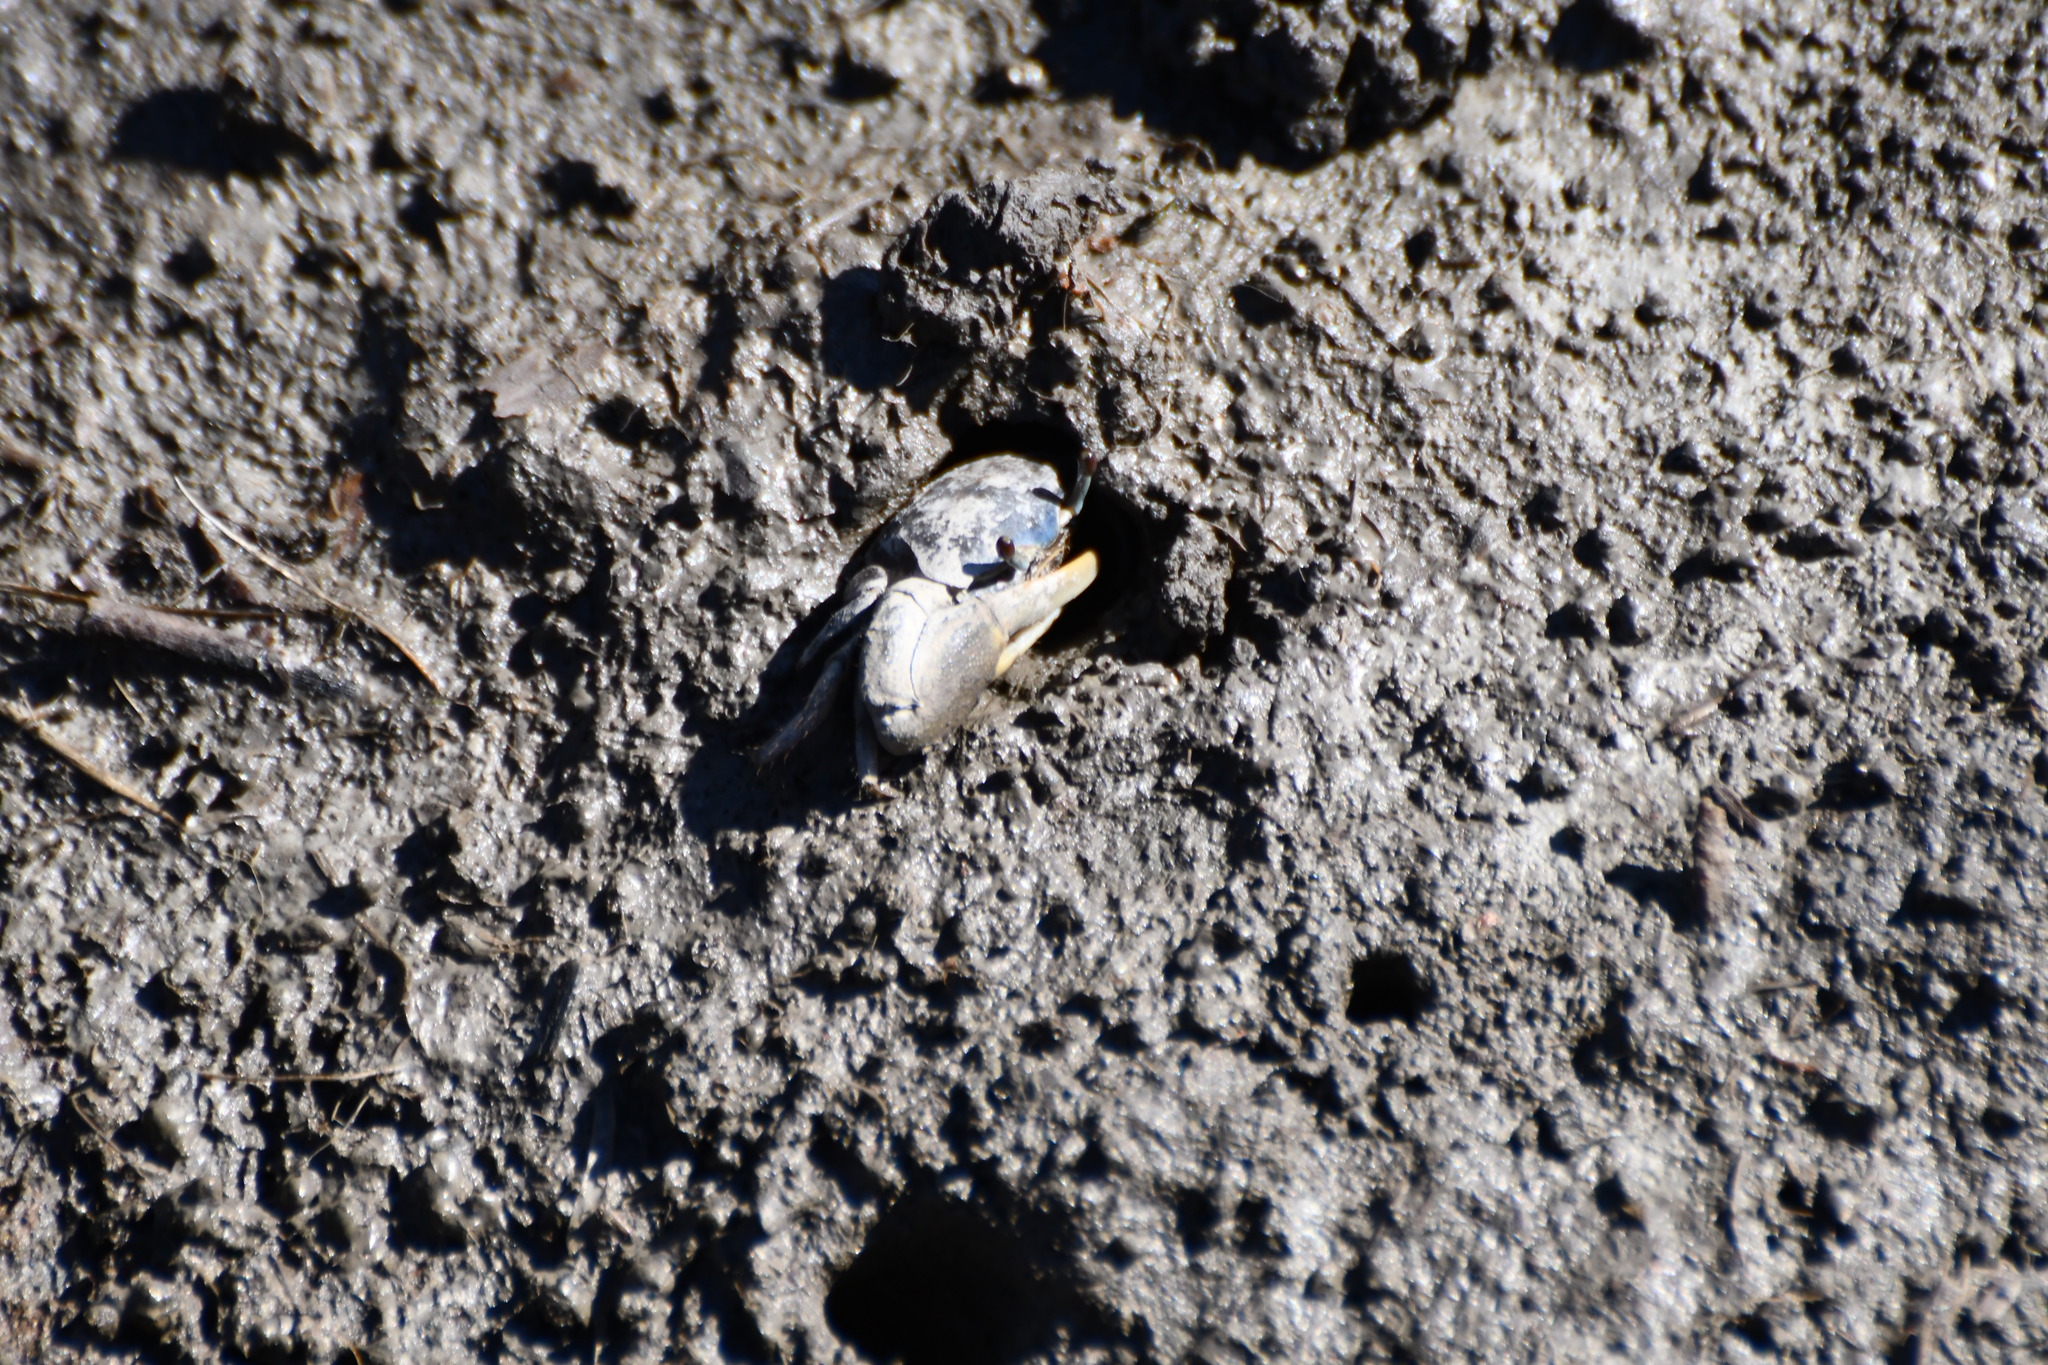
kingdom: Animalia
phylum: Arthropoda
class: Malacostraca
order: Decapoda
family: Ocypodidae
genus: Minuca
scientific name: Minuca pugnax
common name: Mud fiddler crab
